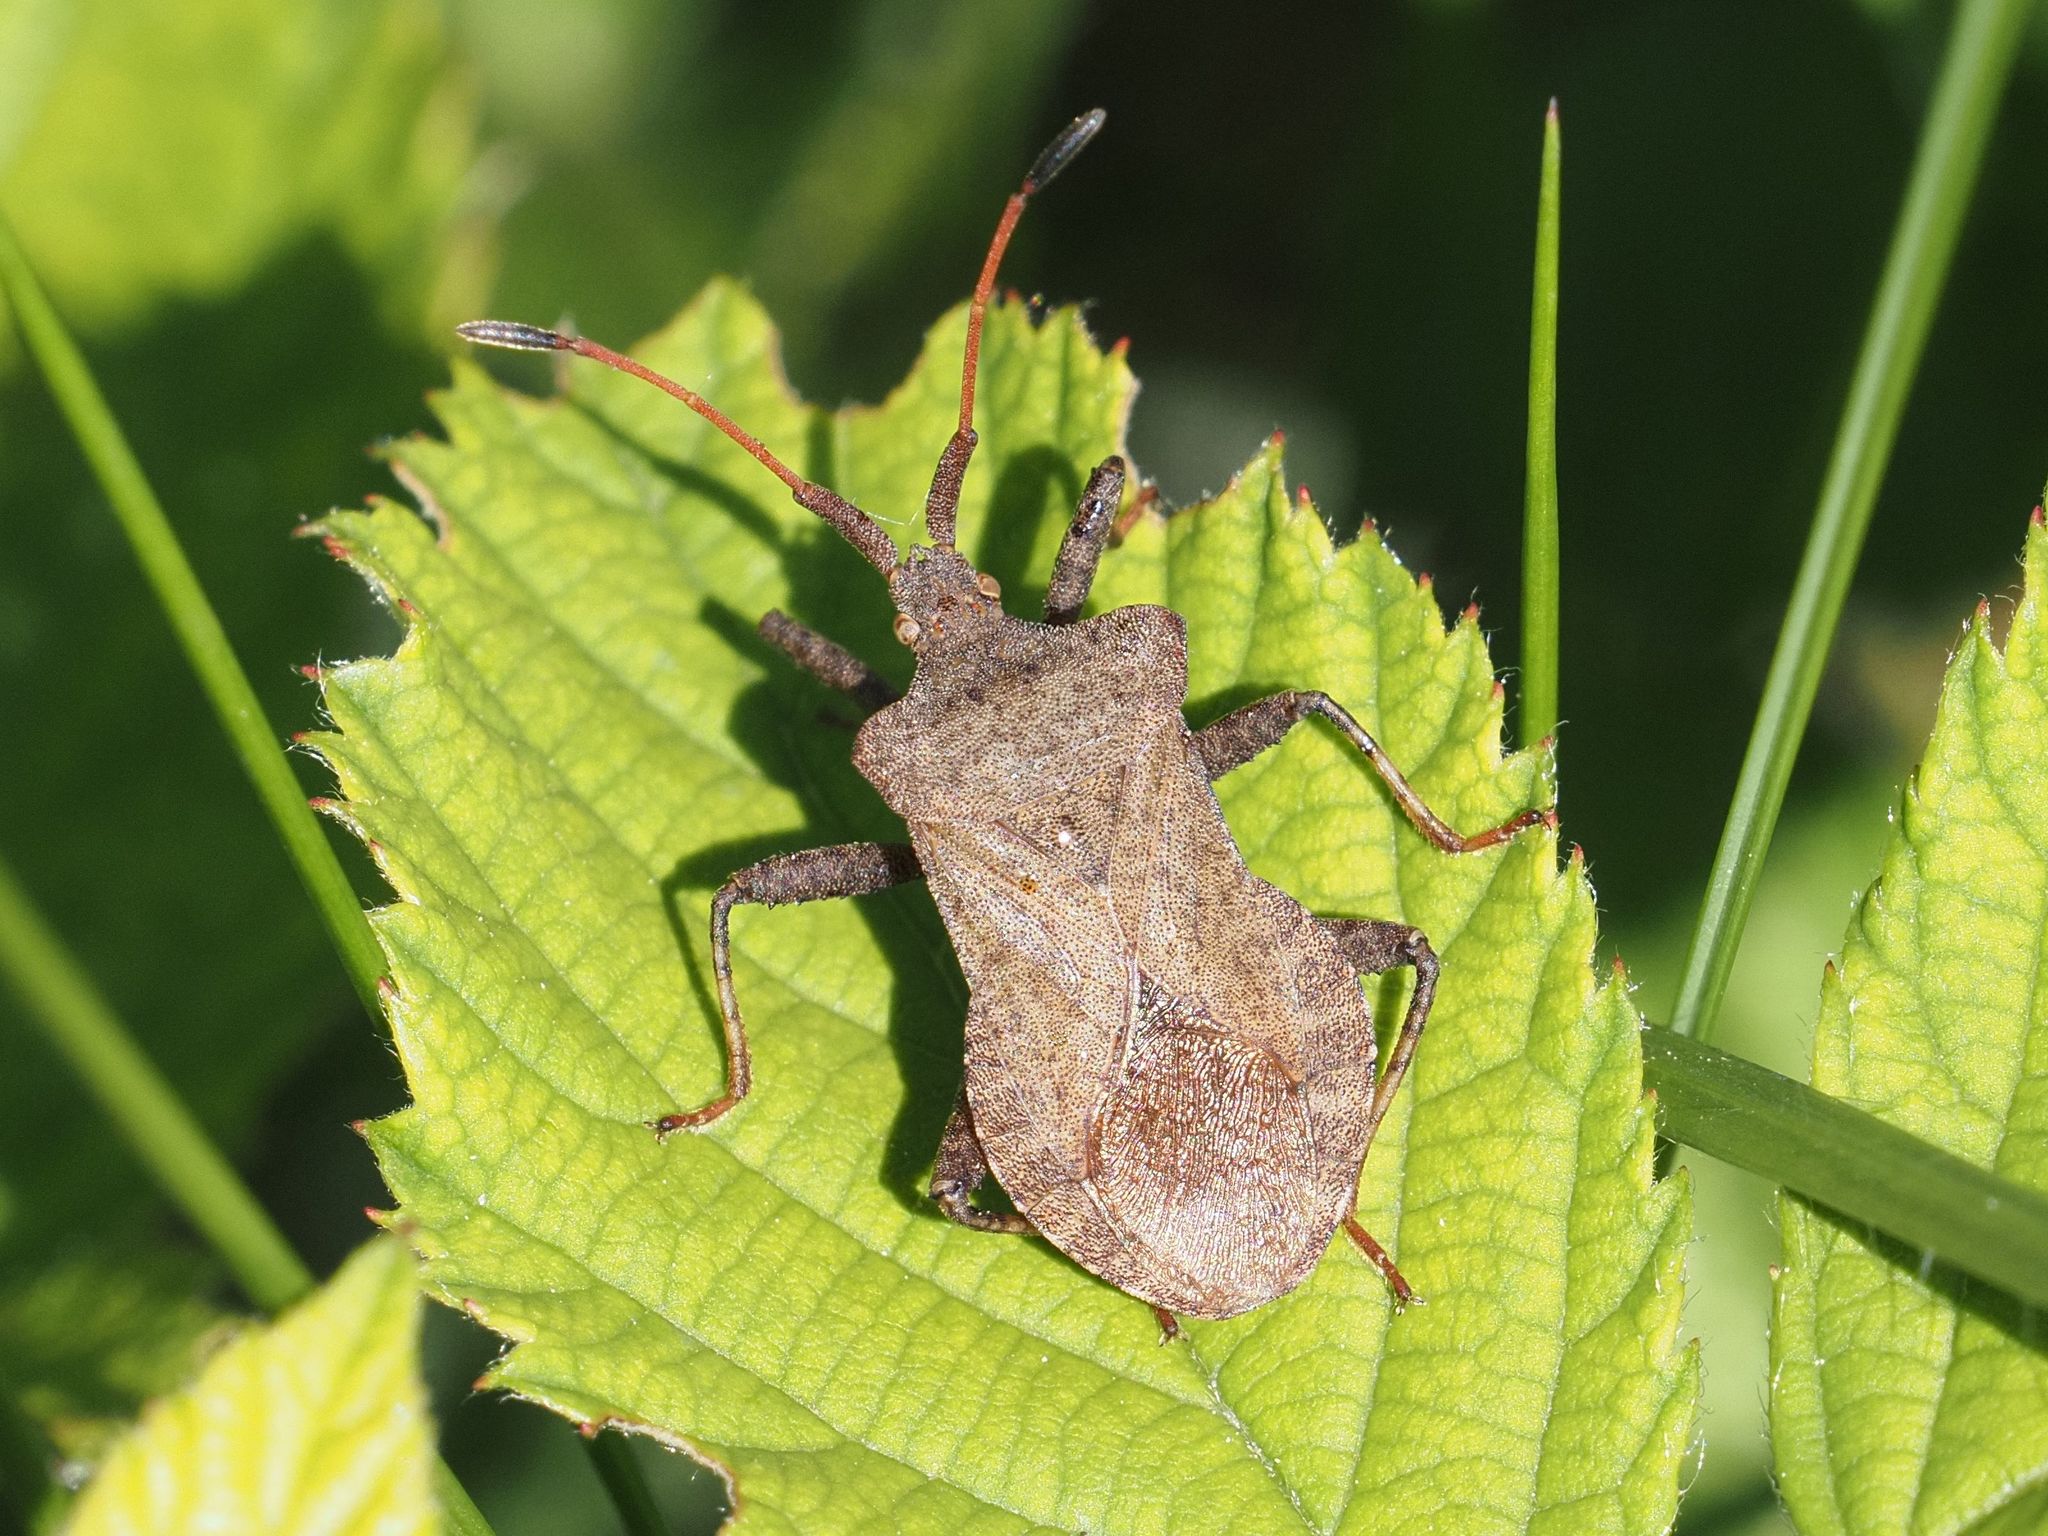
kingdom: Animalia
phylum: Arthropoda
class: Insecta
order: Hemiptera
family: Coreidae
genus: Coreus
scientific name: Coreus marginatus
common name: Dock bug
